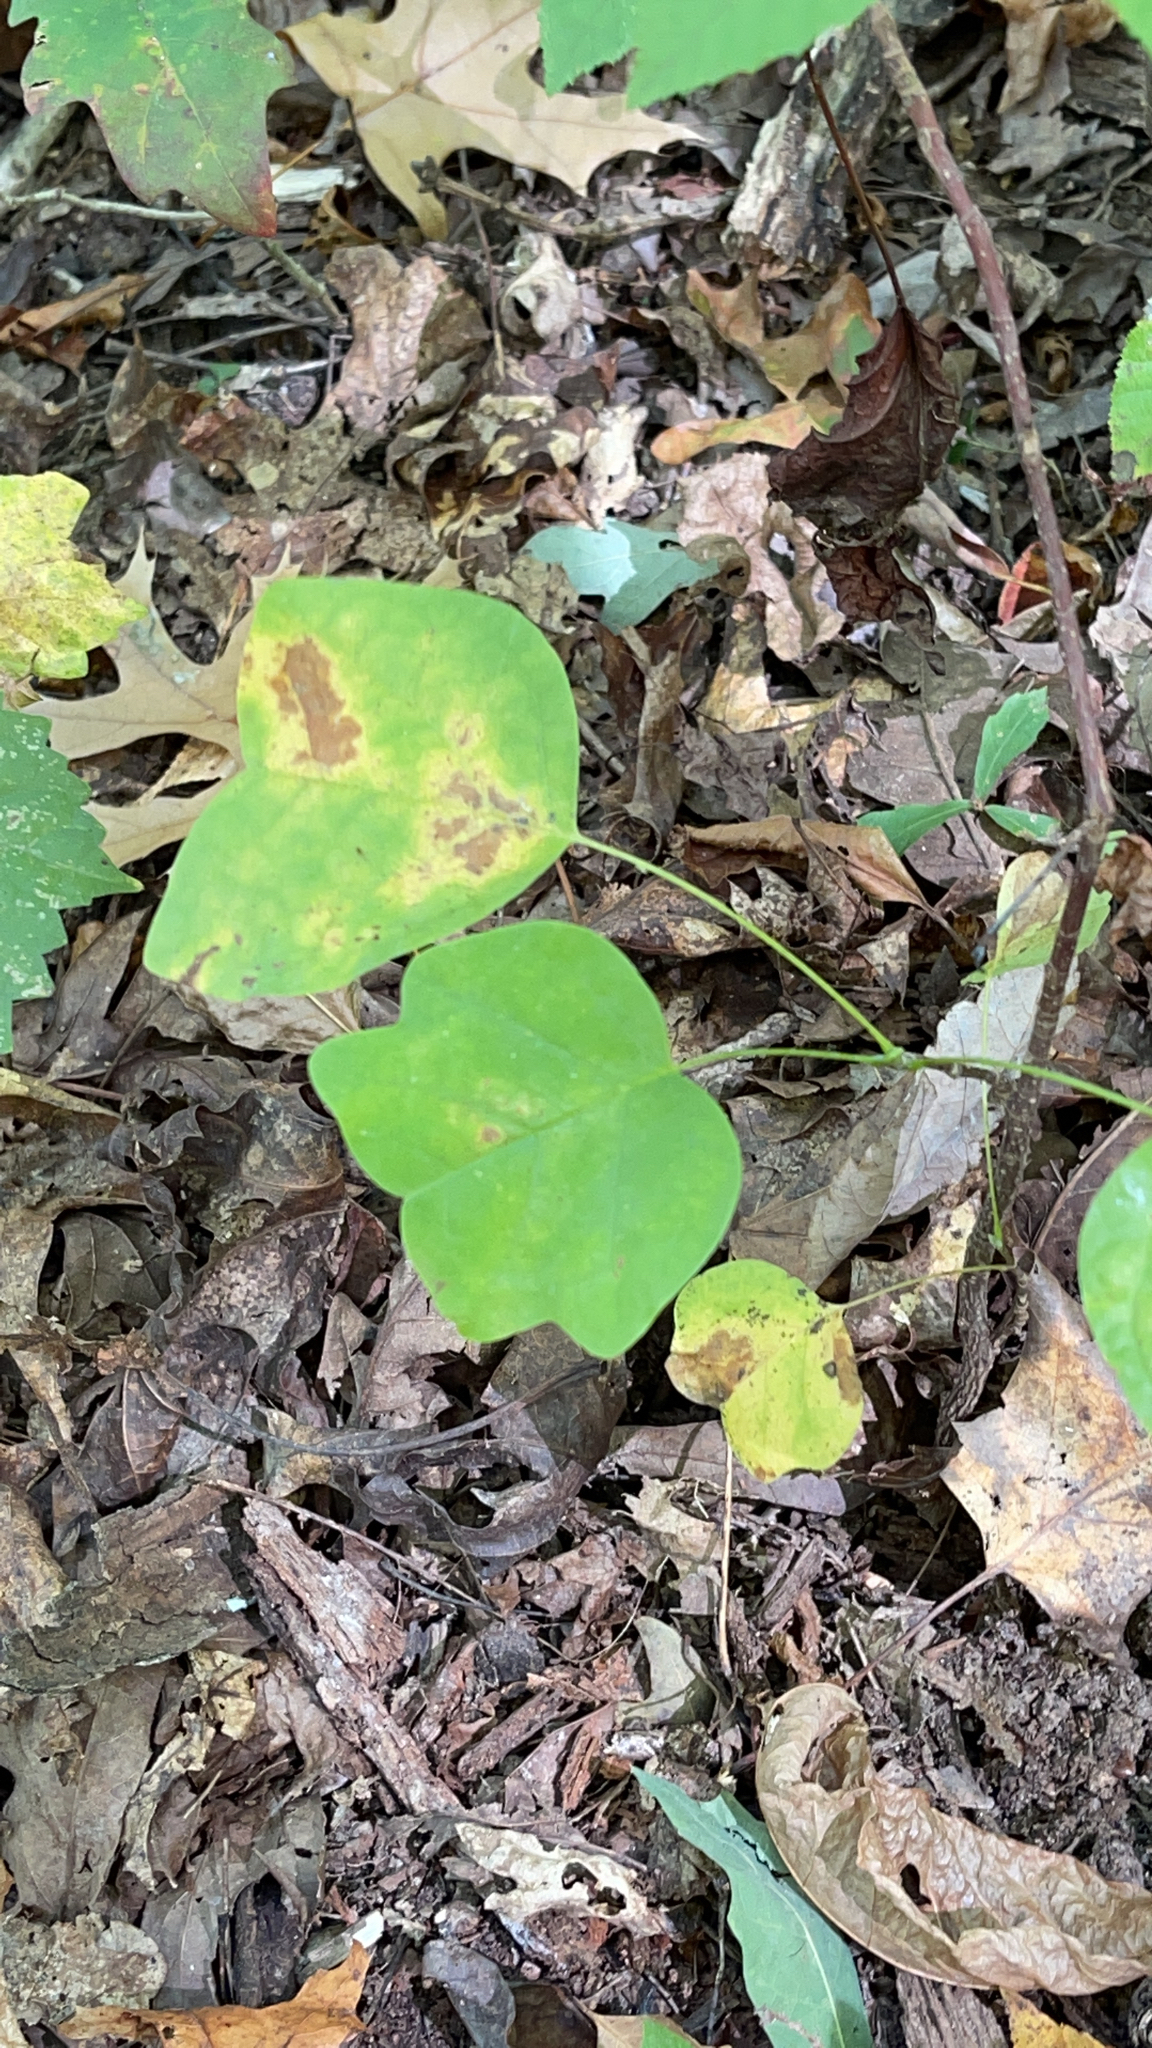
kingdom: Plantae
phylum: Tracheophyta
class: Magnoliopsida
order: Magnoliales
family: Magnoliaceae
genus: Liriodendron
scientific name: Liriodendron tulipifera
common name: Tulip tree
